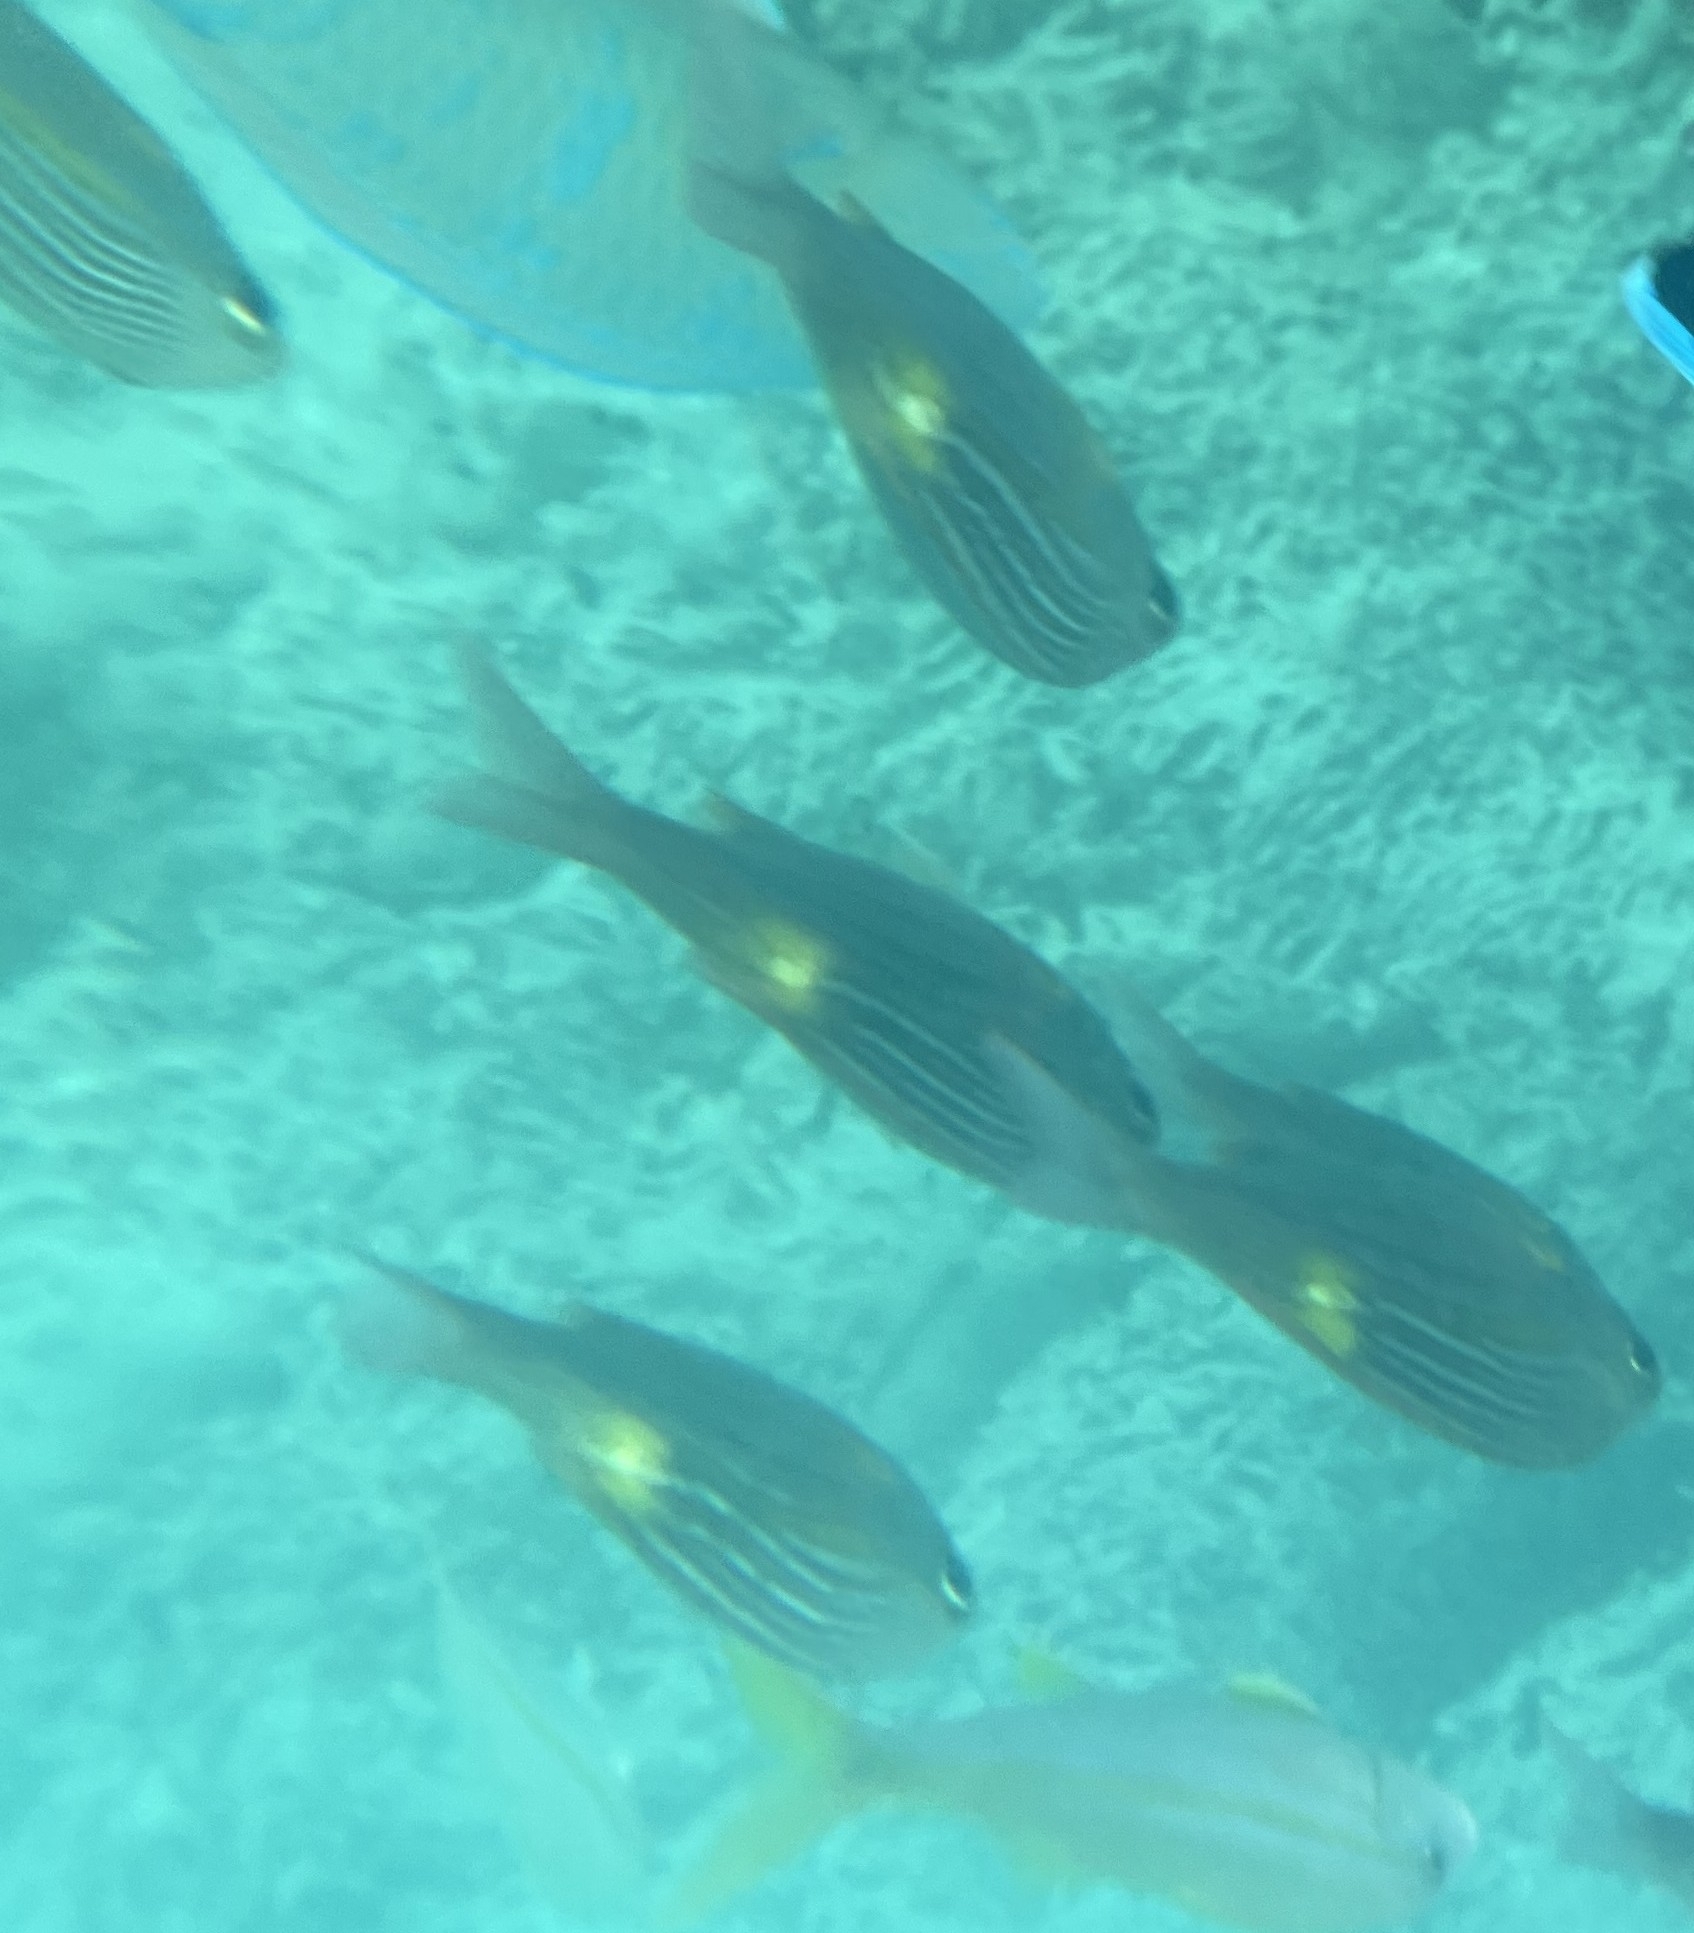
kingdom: Animalia
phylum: Chordata
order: Perciformes
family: Lethrinidae
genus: Gnathodentex
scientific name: Gnathodentex aureolineatus
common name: Gold-lined sea bream
